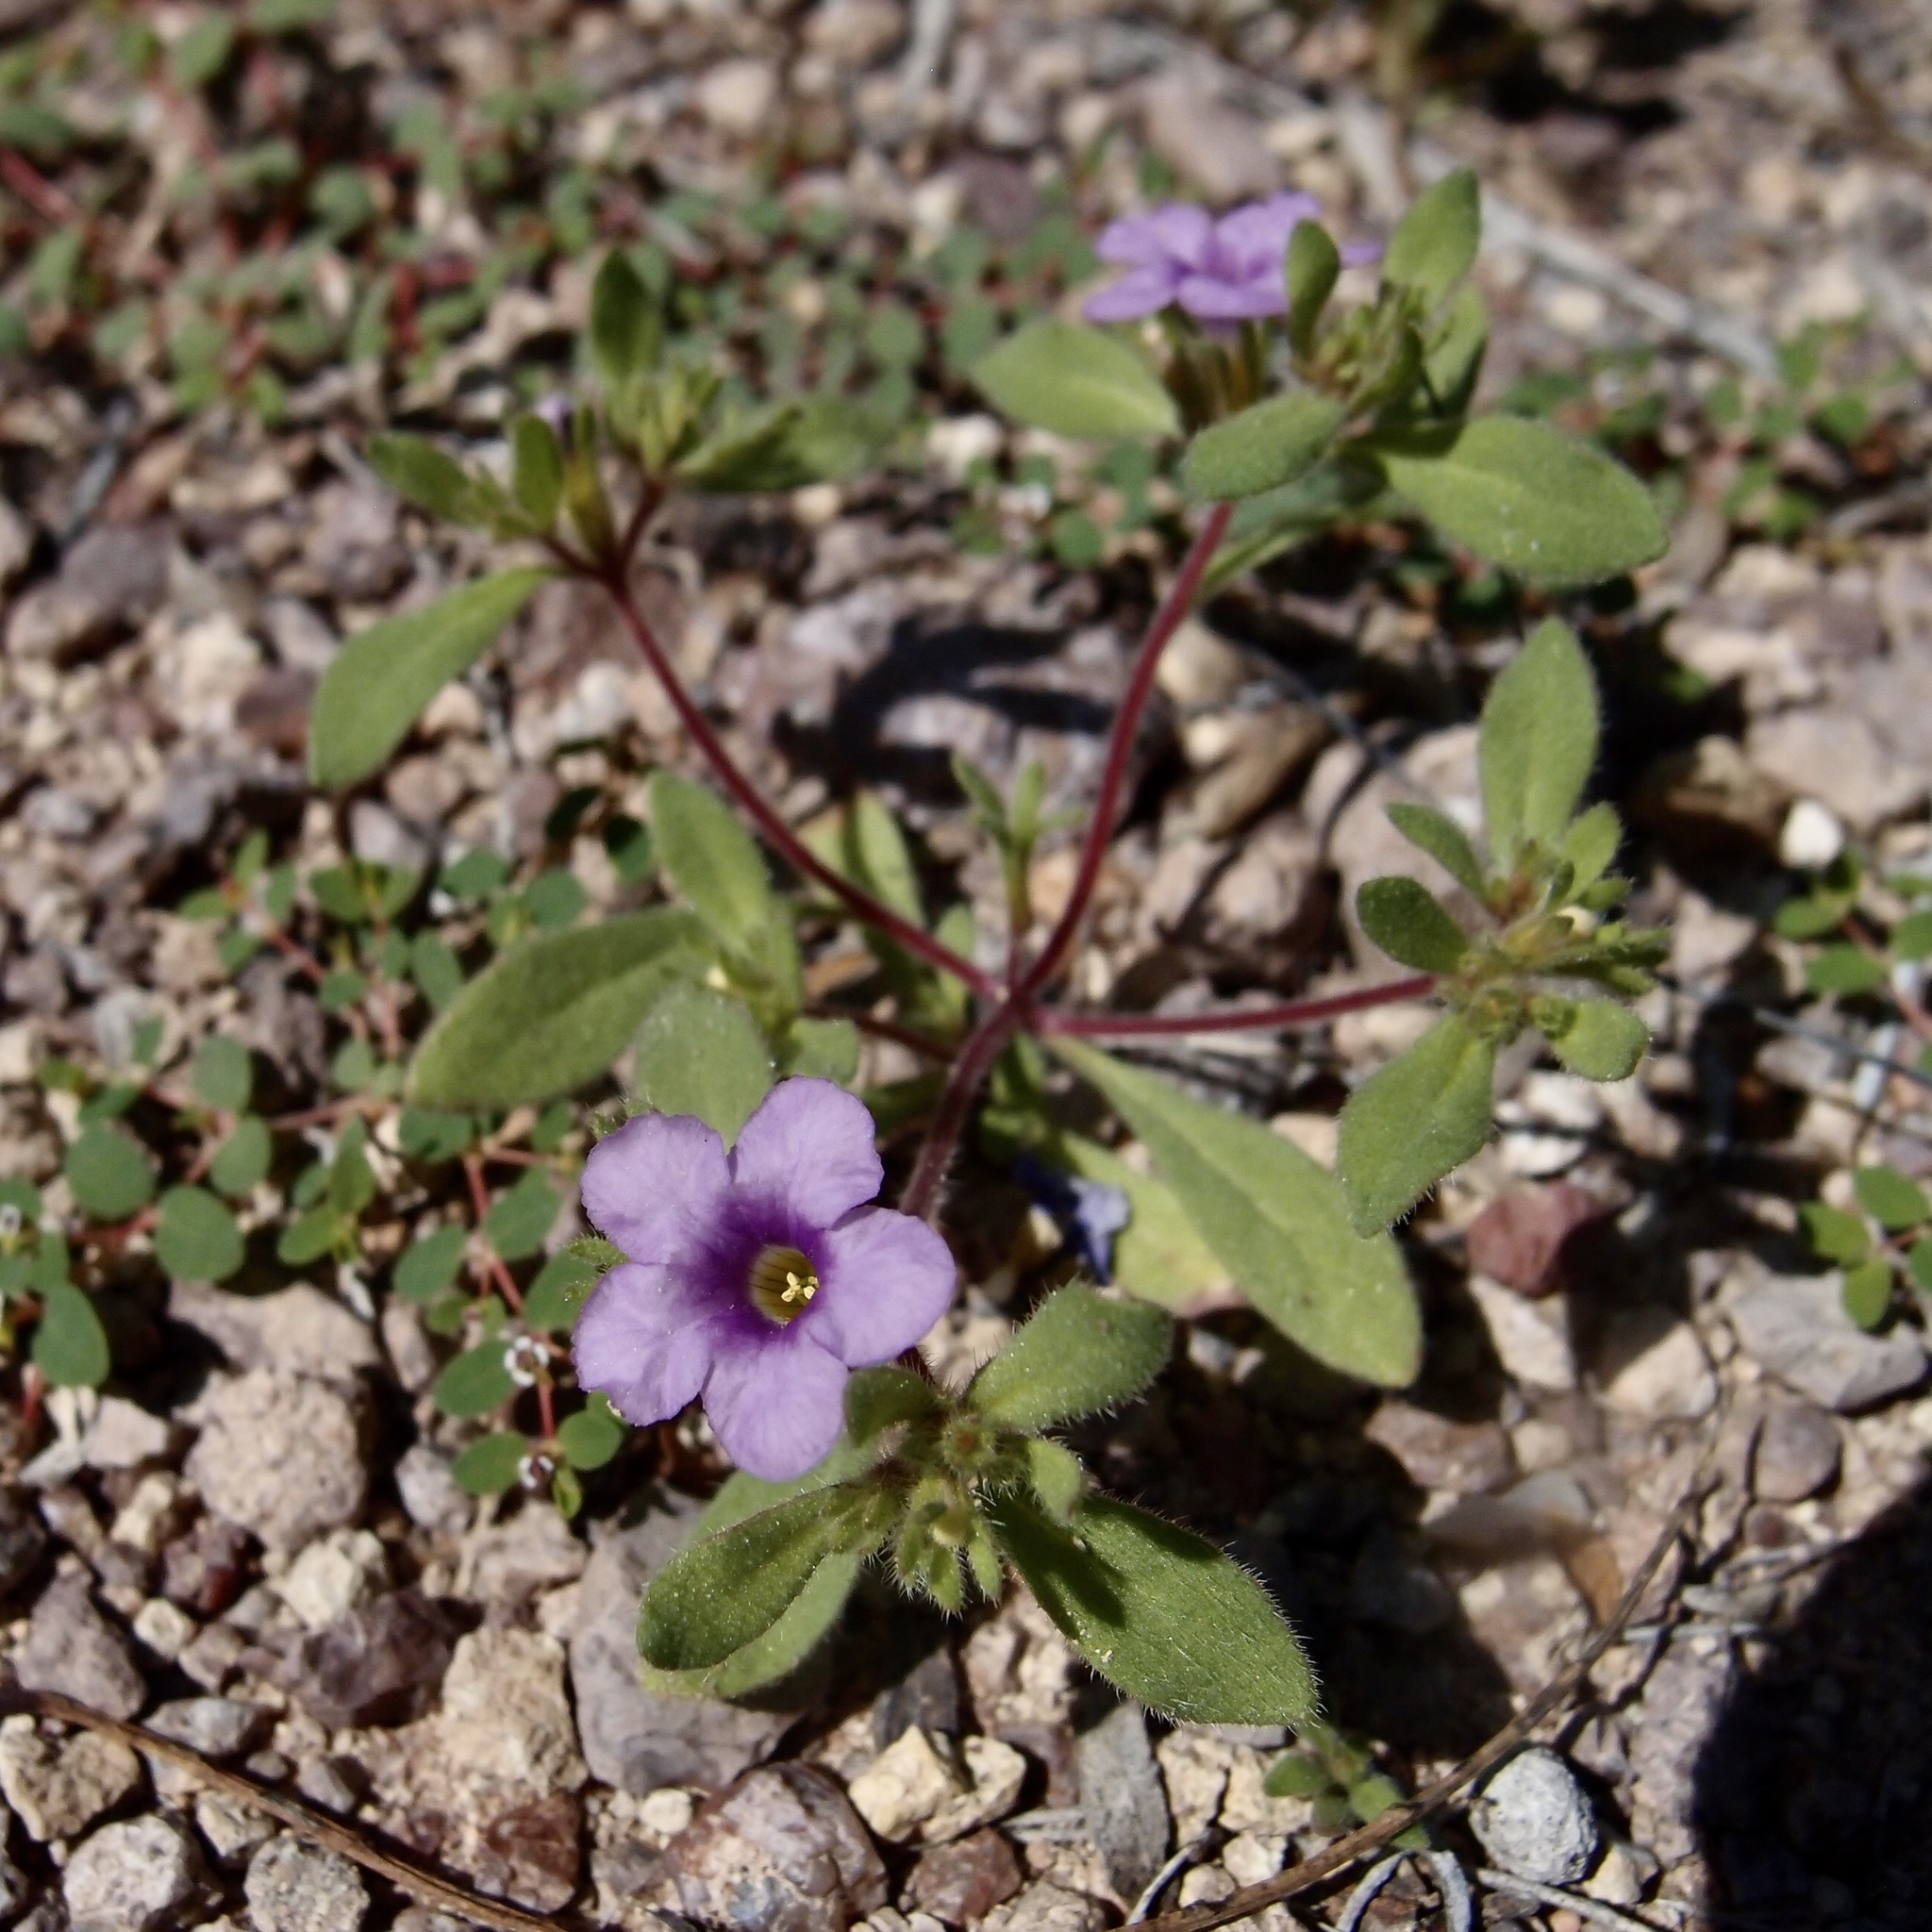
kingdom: Plantae
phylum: Tracheophyta
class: Magnoliopsida
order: Boraginales
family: Namaceae
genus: Nama
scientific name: Nama hispida
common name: Bristly nama
